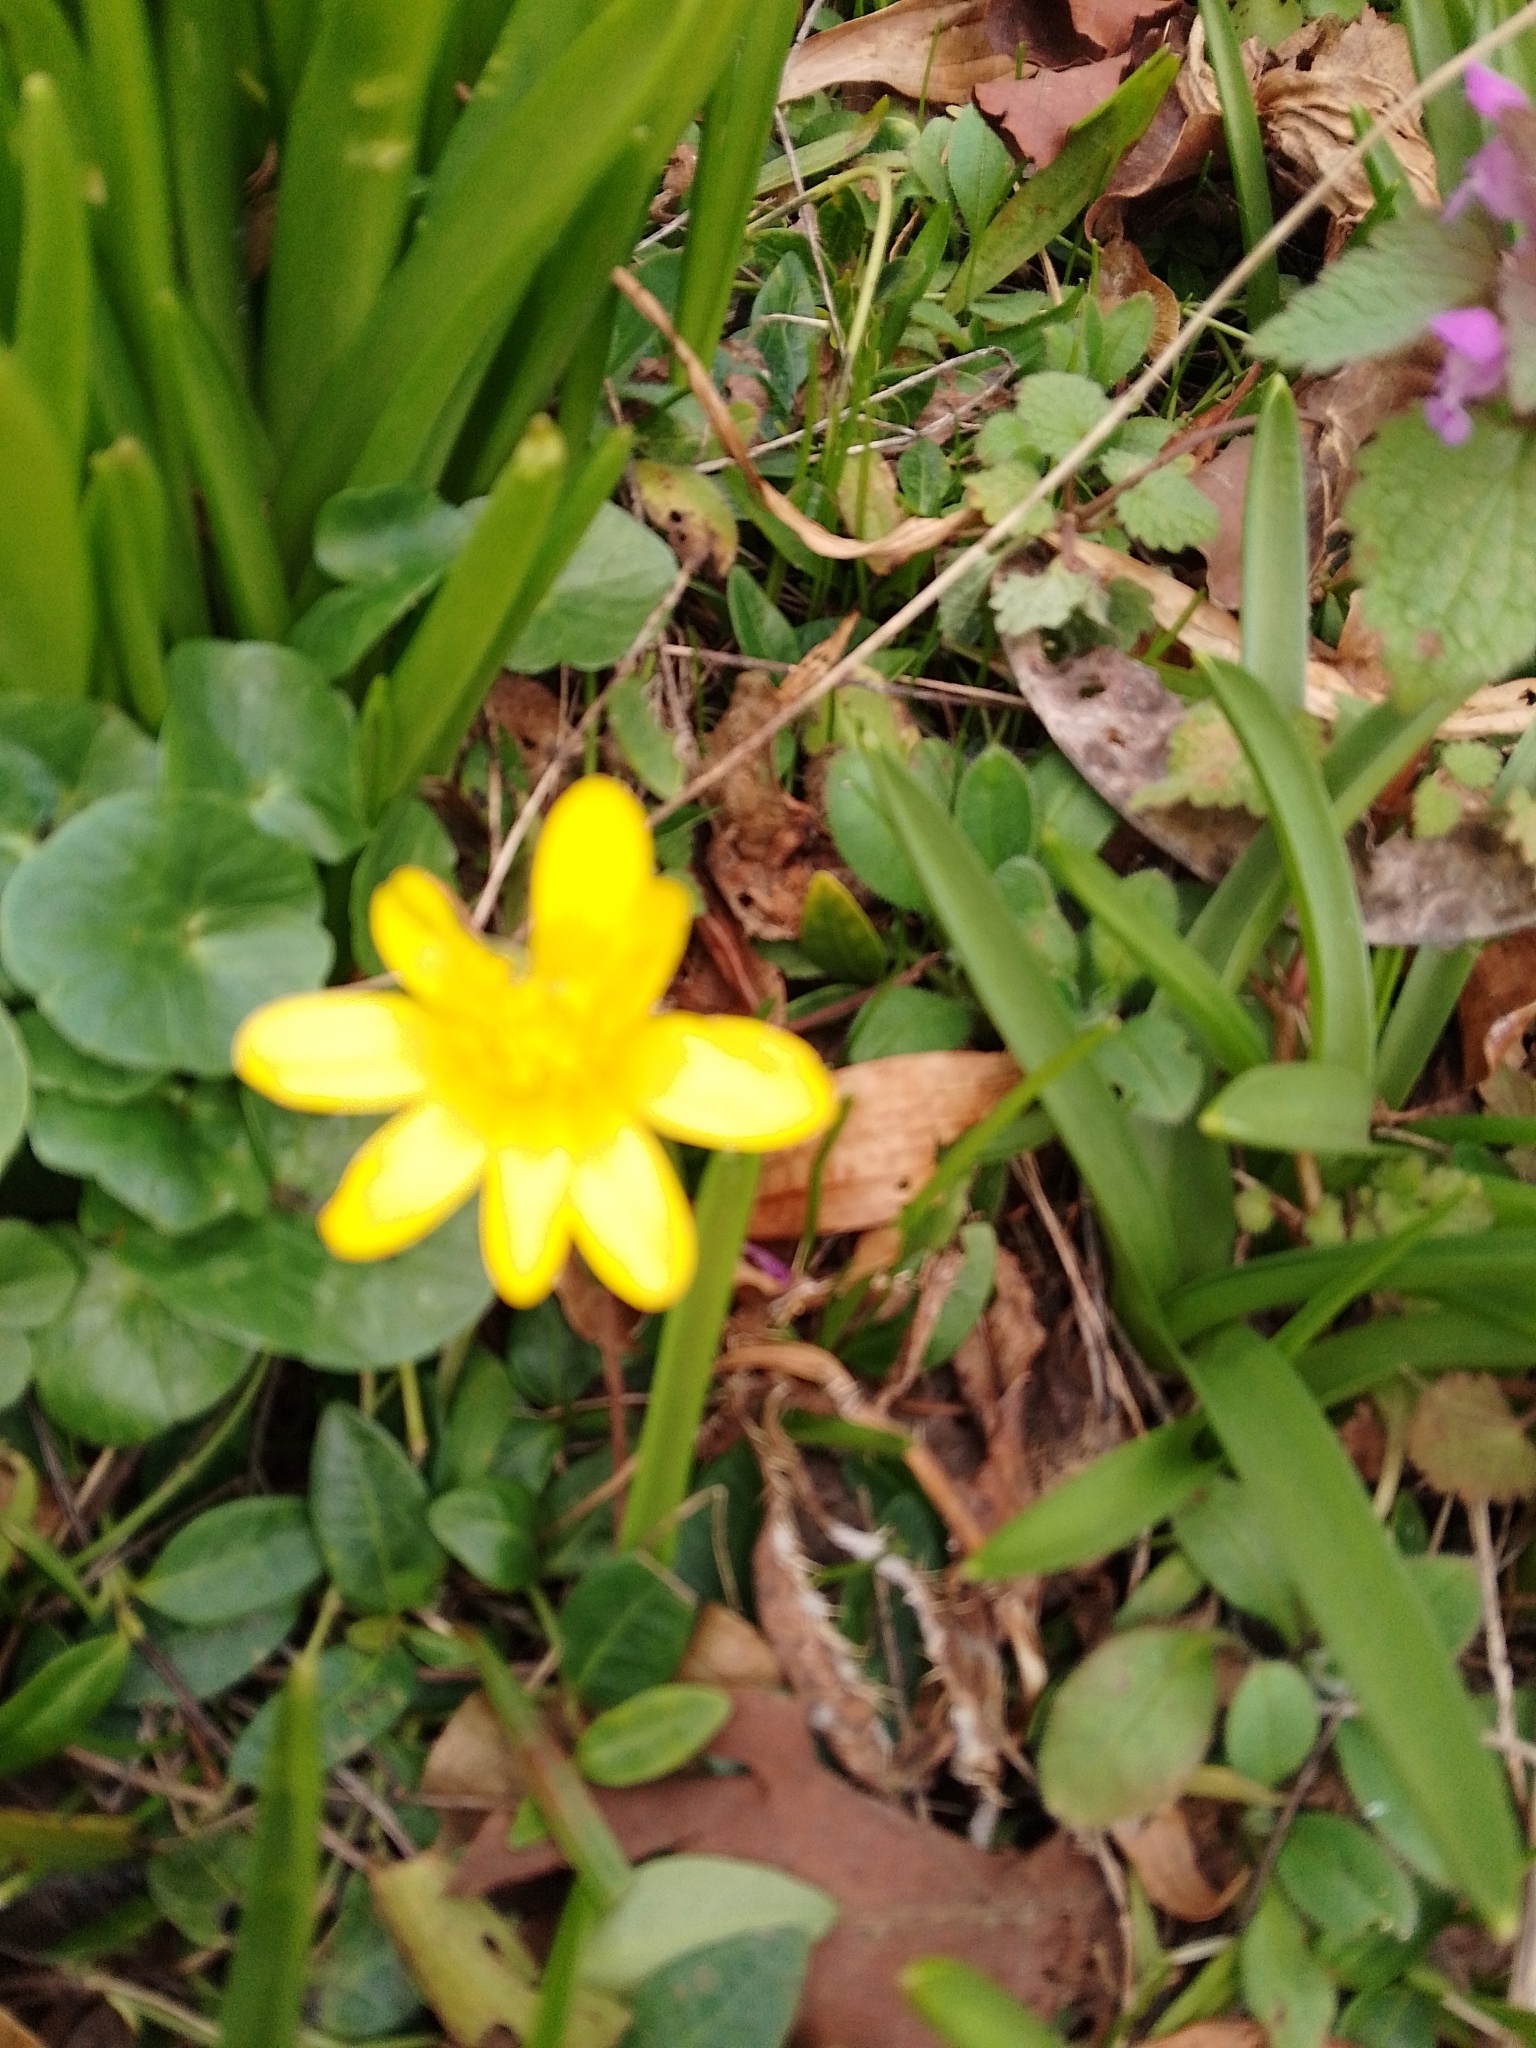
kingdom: Plantae
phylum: Tracheophyta
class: Magnoliopsida
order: Ranunculales
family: Ranunculaceae
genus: Ficaria
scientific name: Ficaria verna
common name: Lesser celandine
